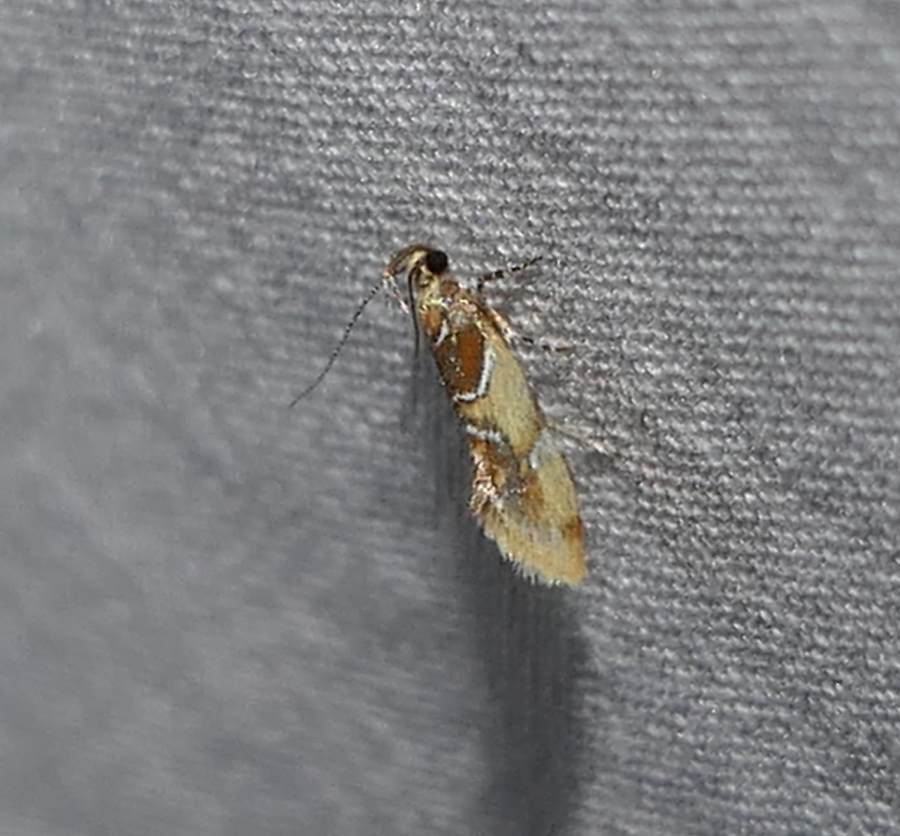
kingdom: Animalia
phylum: Arthropoda
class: Insecta
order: Lepidoptera
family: Oecophoridae
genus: Callima
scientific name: Callima argenticinctella
